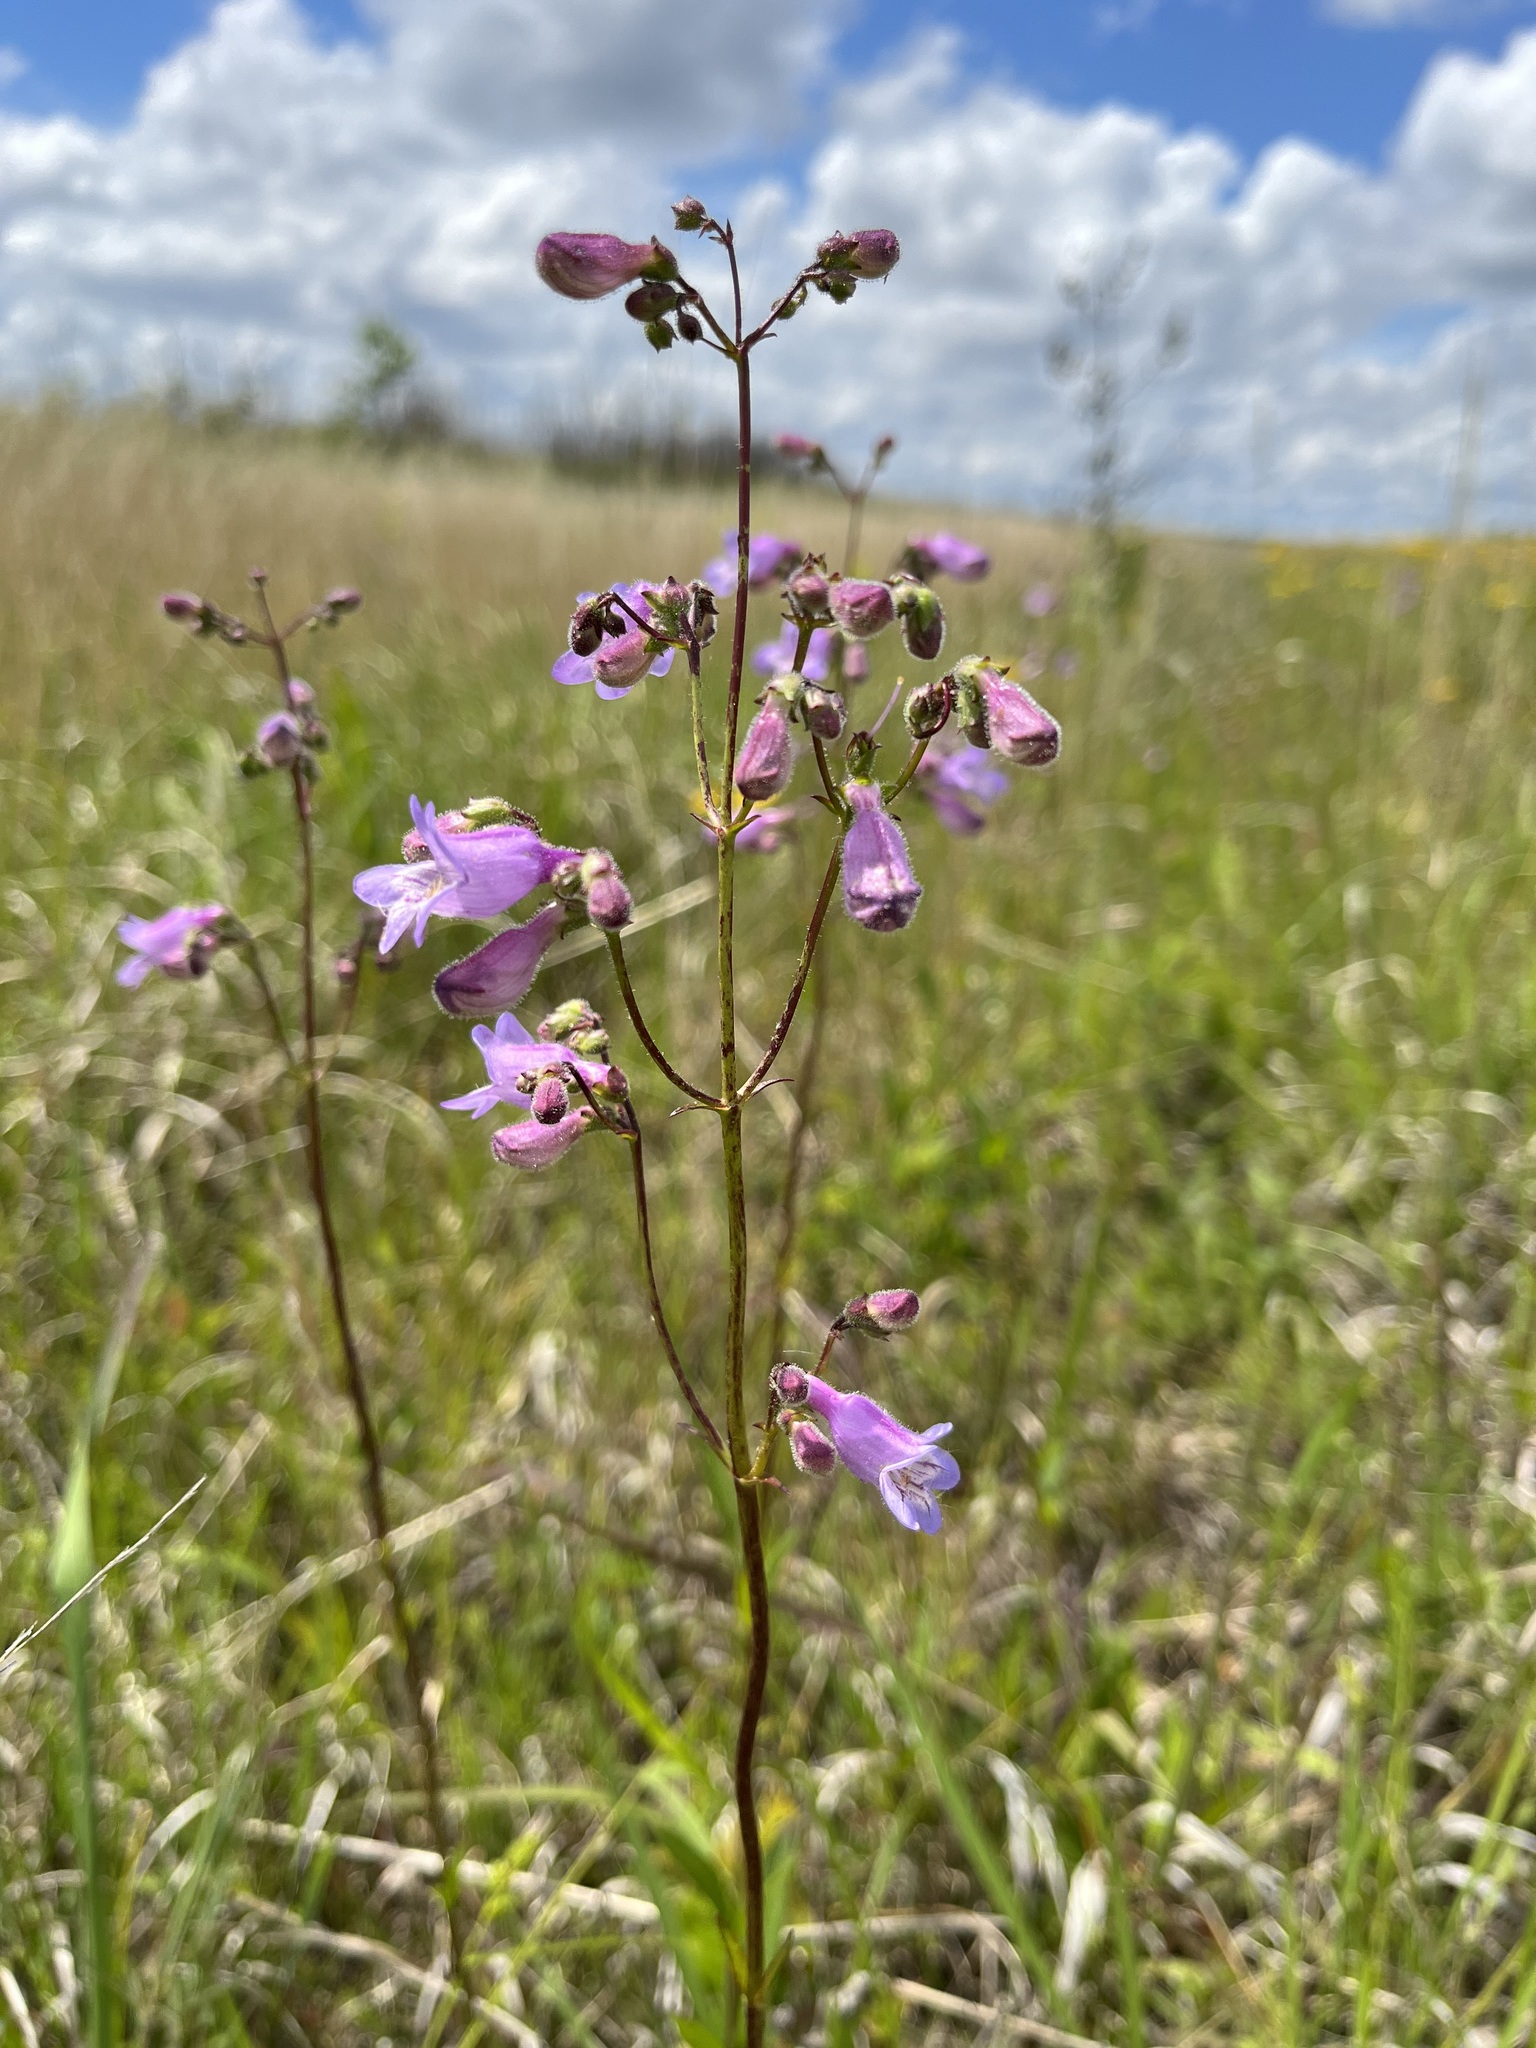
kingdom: Plantae
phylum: Tracheophyta
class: Magnoliopsida
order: Lamiales
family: Plantaginaceae
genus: Penstemon
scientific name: Penstemon laevigatus
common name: Eastern beardtongue
